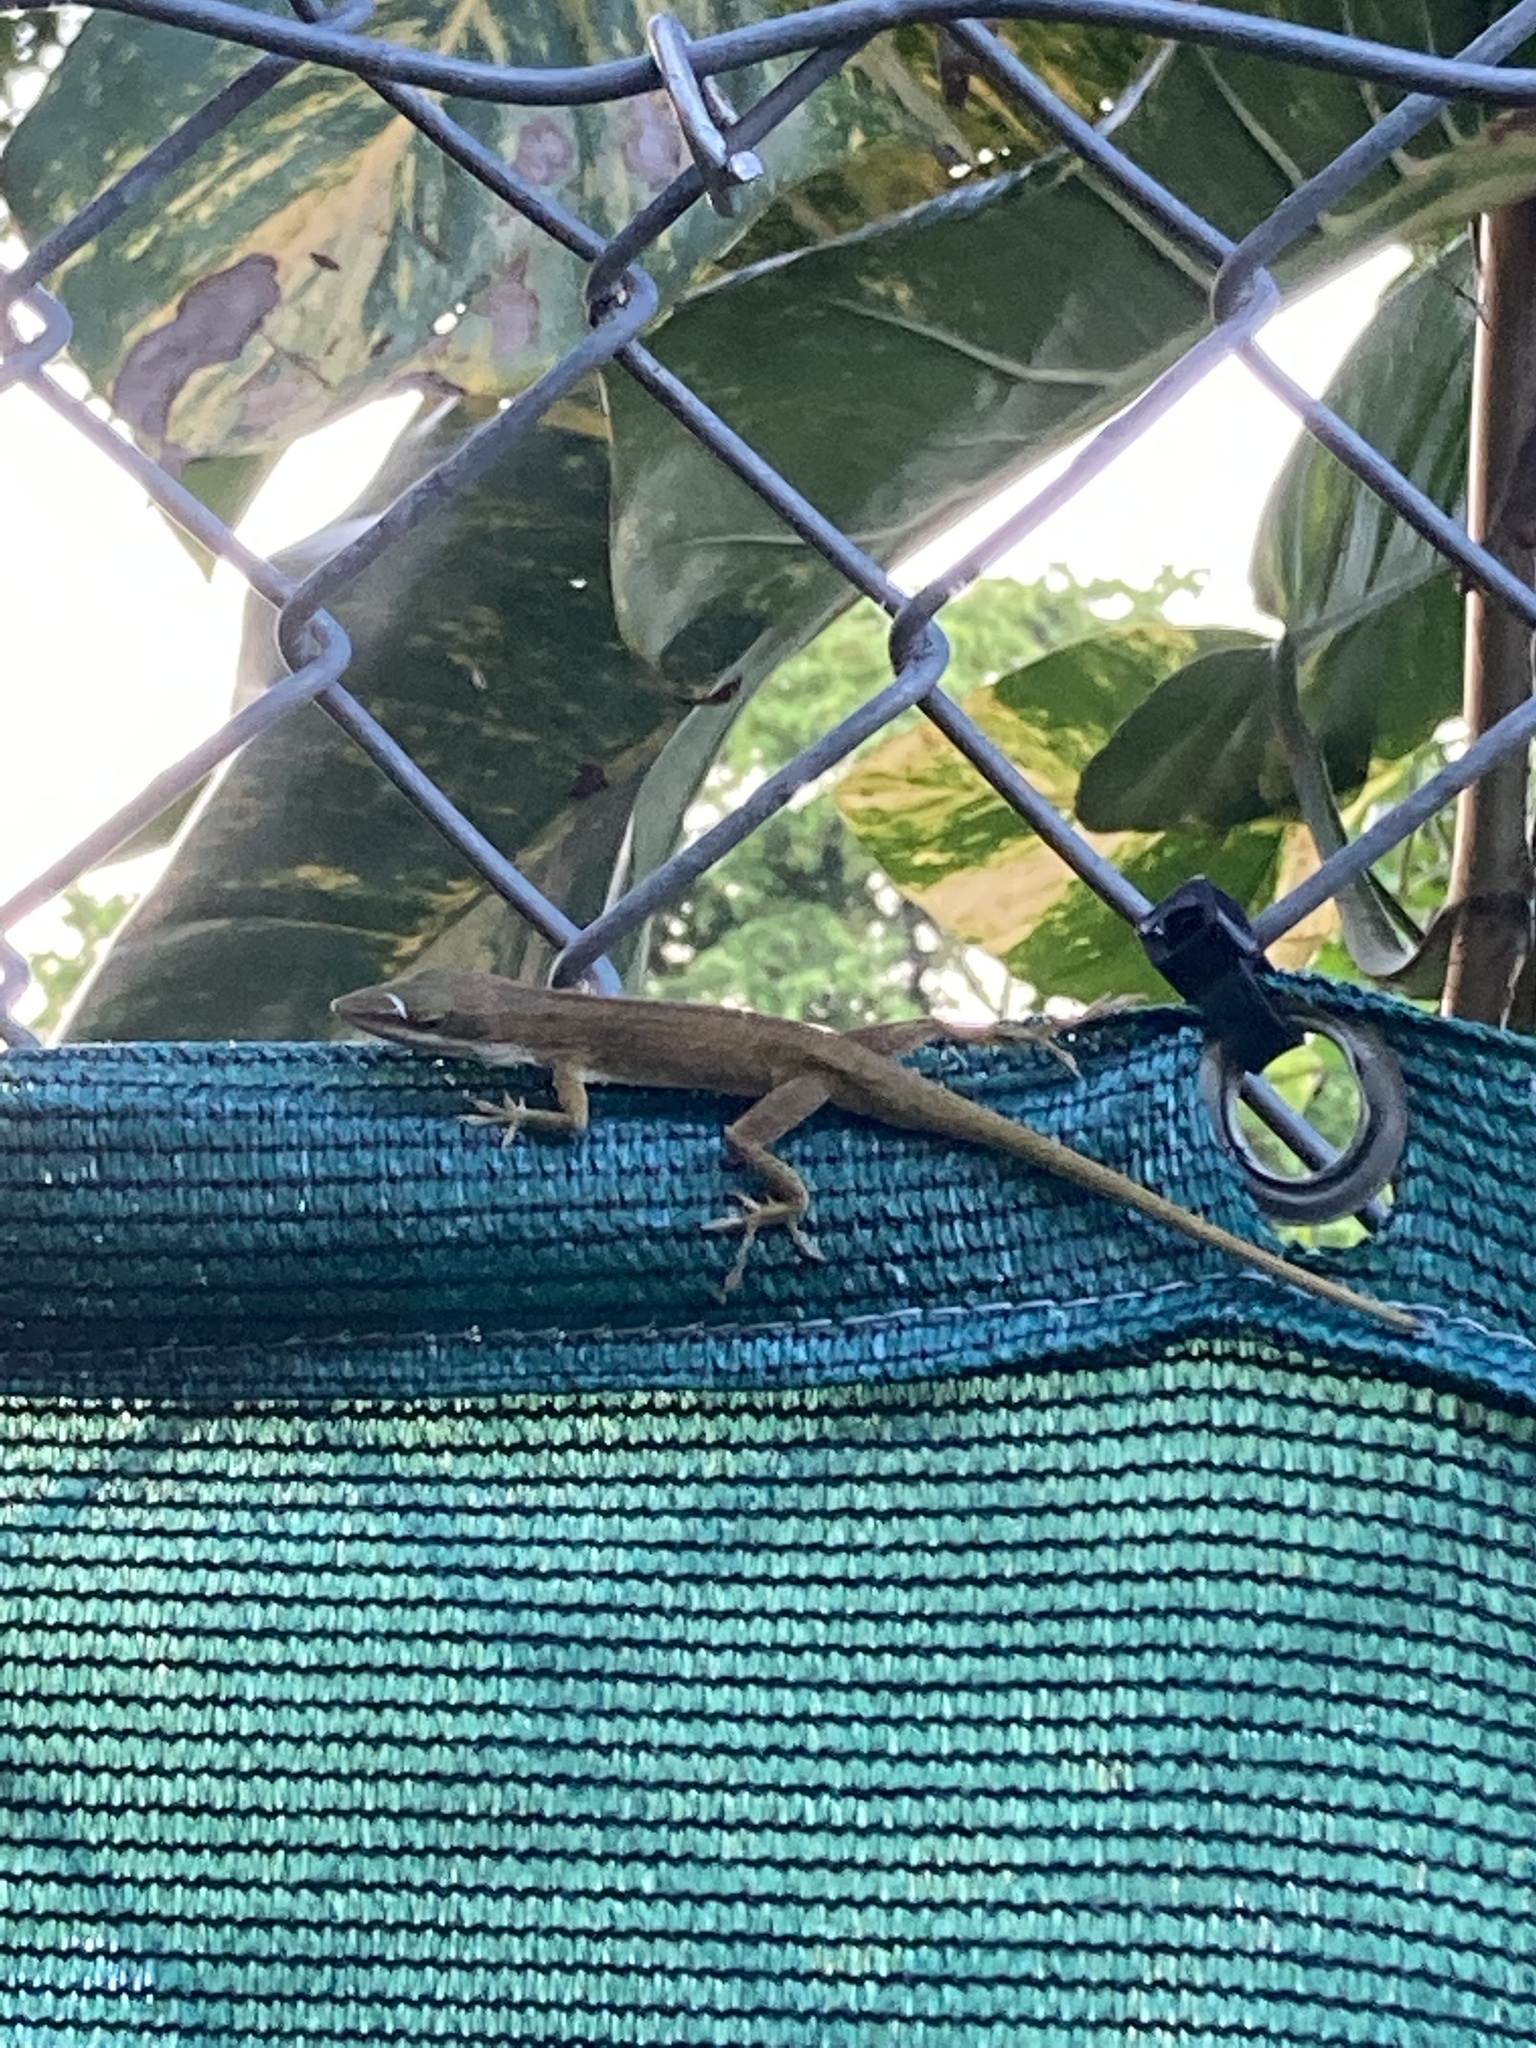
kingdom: Animalia
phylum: Chordata
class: Squamata
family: Dactyloidae
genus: Anolis
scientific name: Anolis carolinensis
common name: Green anole
